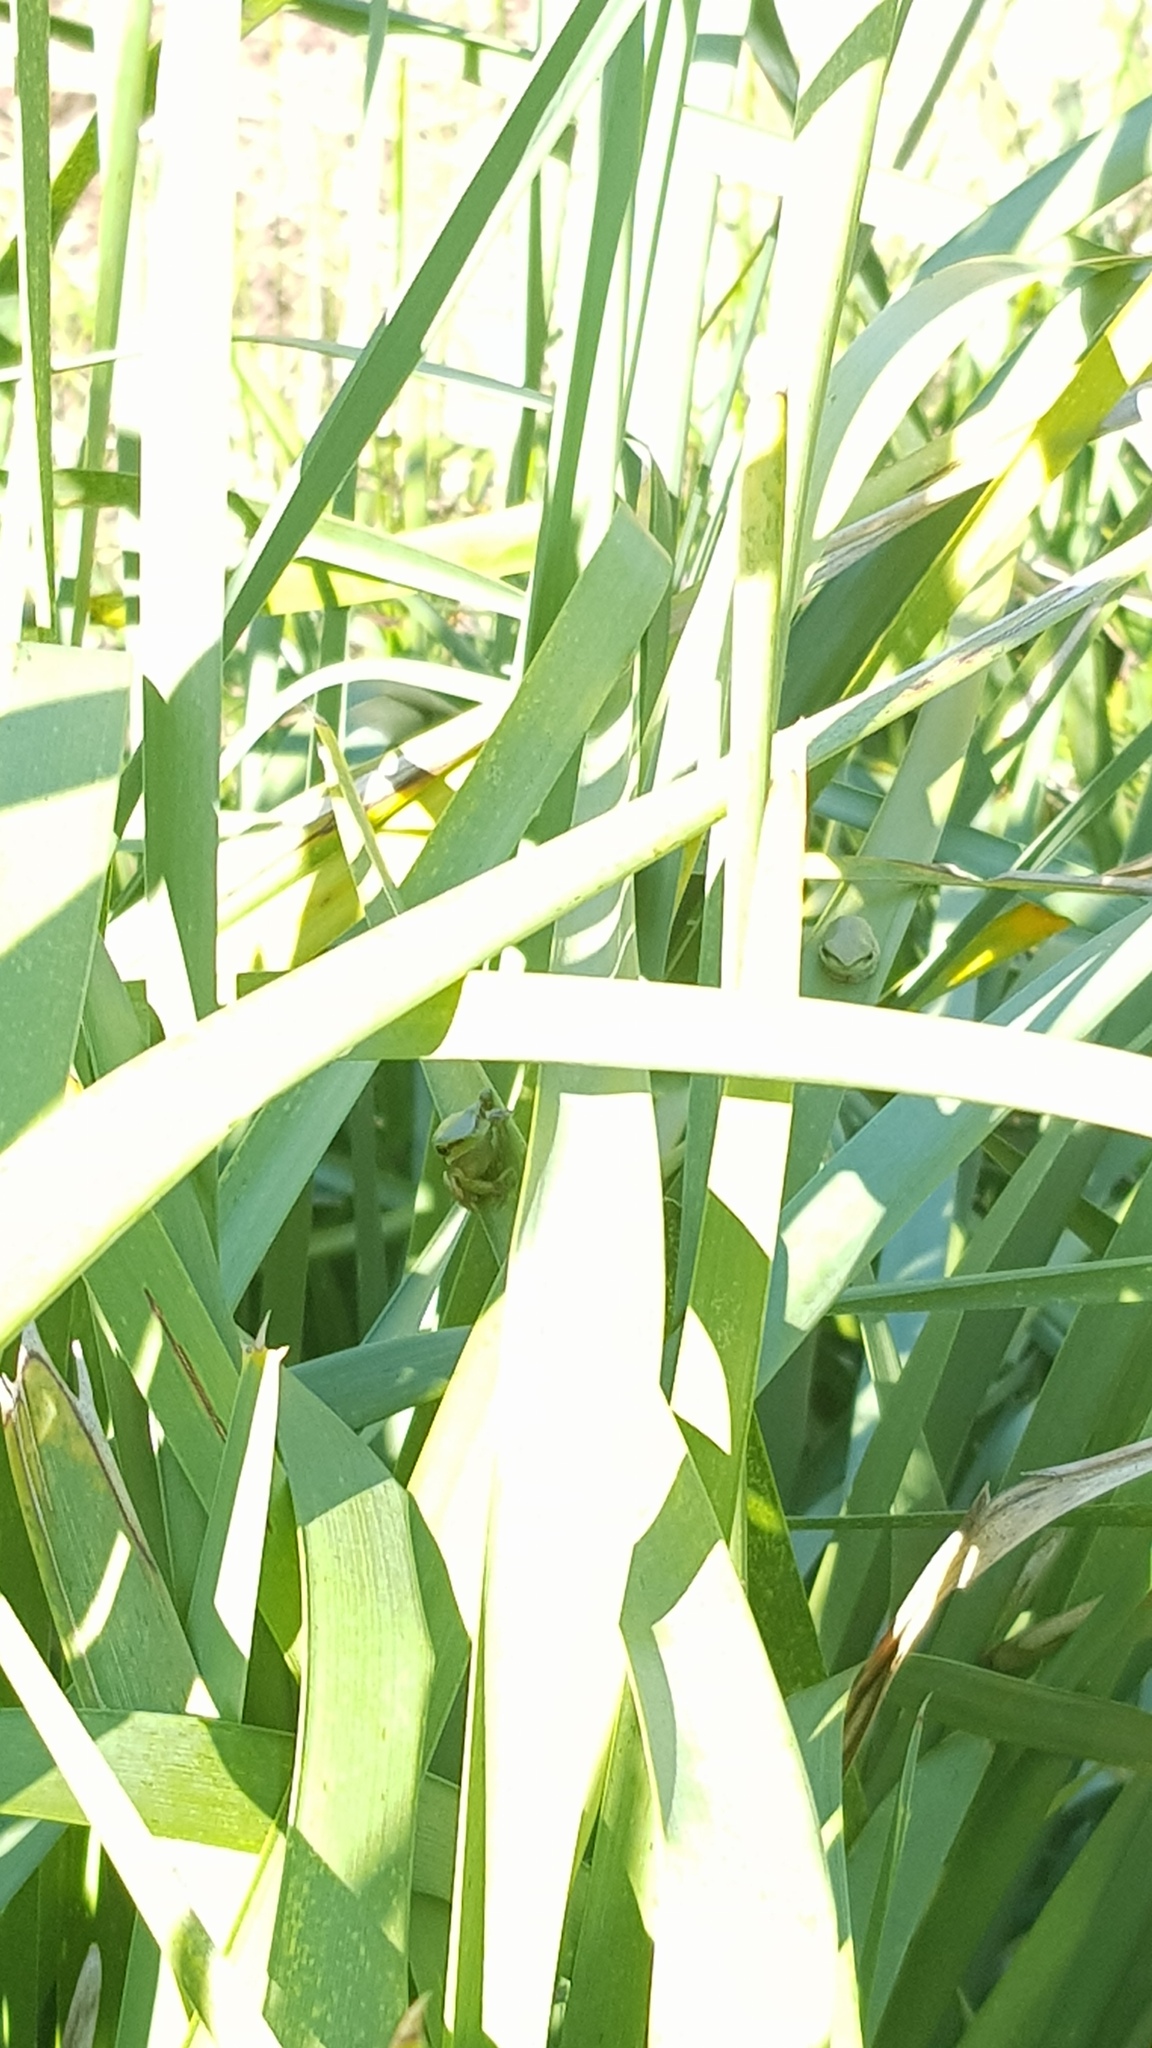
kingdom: Animalia
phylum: Chordata
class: Amphibia
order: Anura
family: Pelodryadidae
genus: Litoria
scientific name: Litoria fallax
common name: Eastern dwarf treefrog
